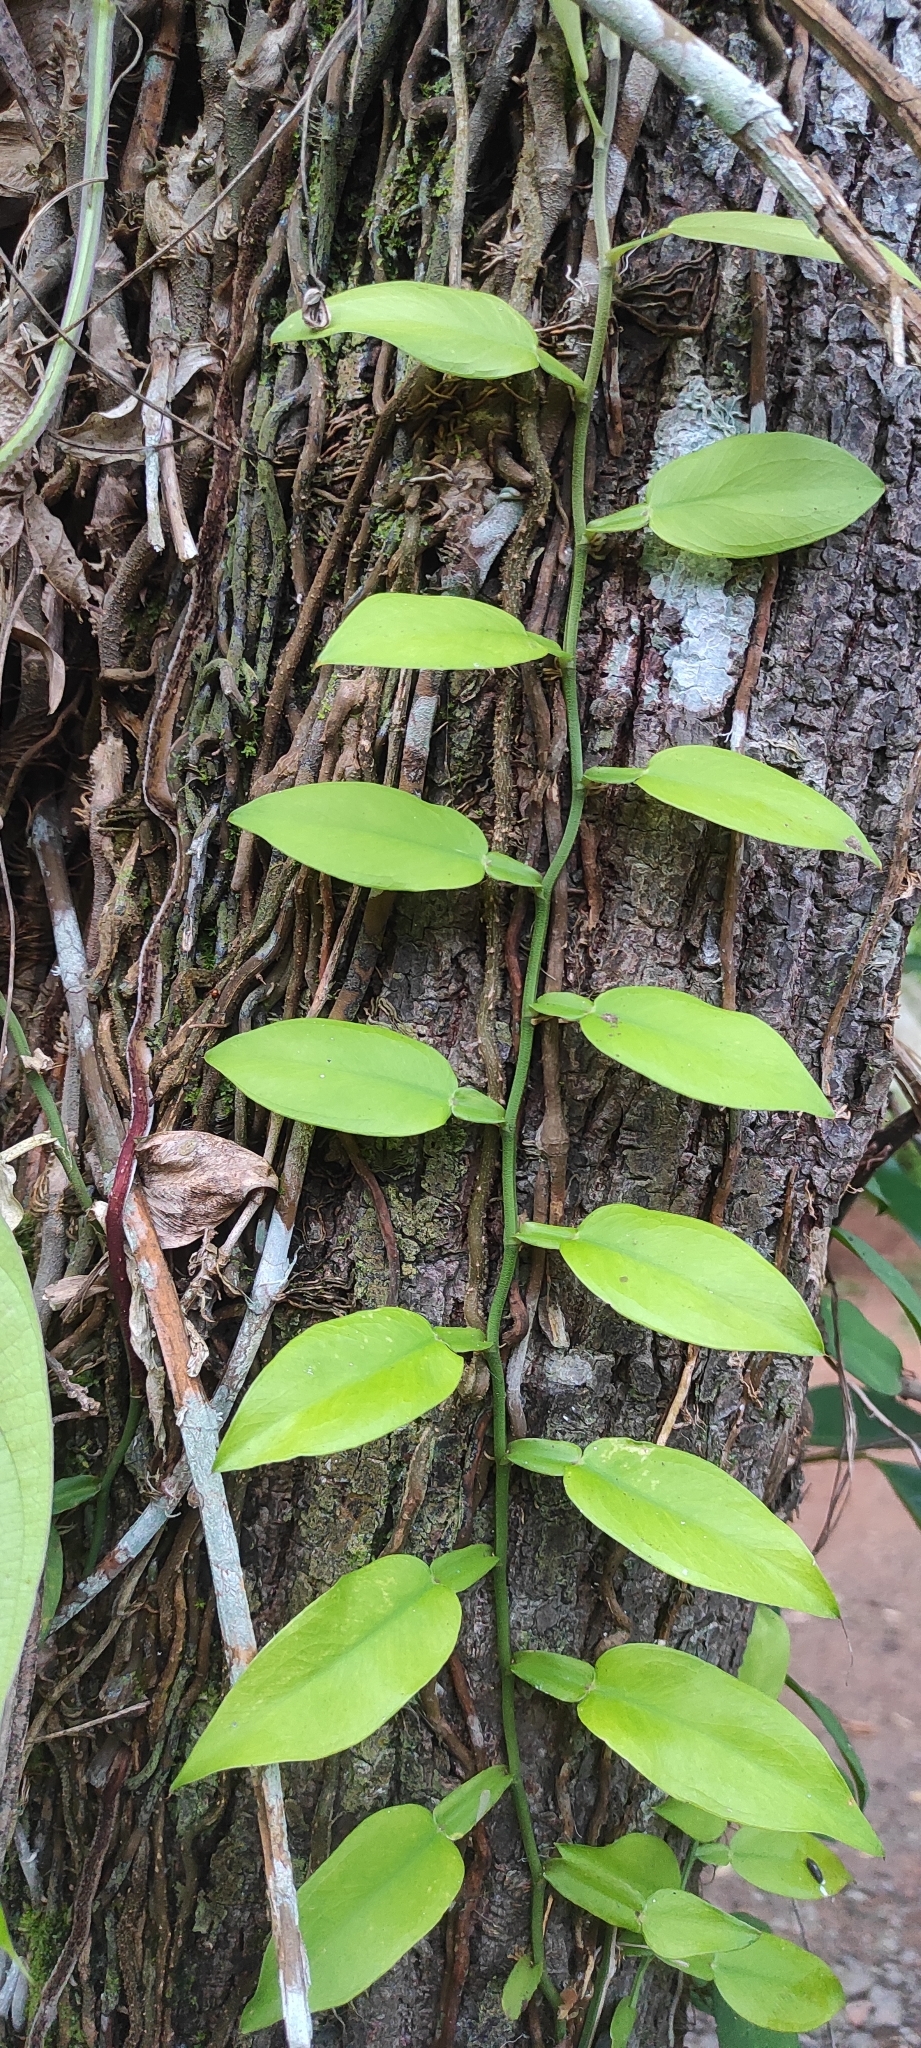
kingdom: Plantae
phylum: Tracheophyta
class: Liliopsida
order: Alismatales
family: Araceae
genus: Pothos
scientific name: Pothos scandens
